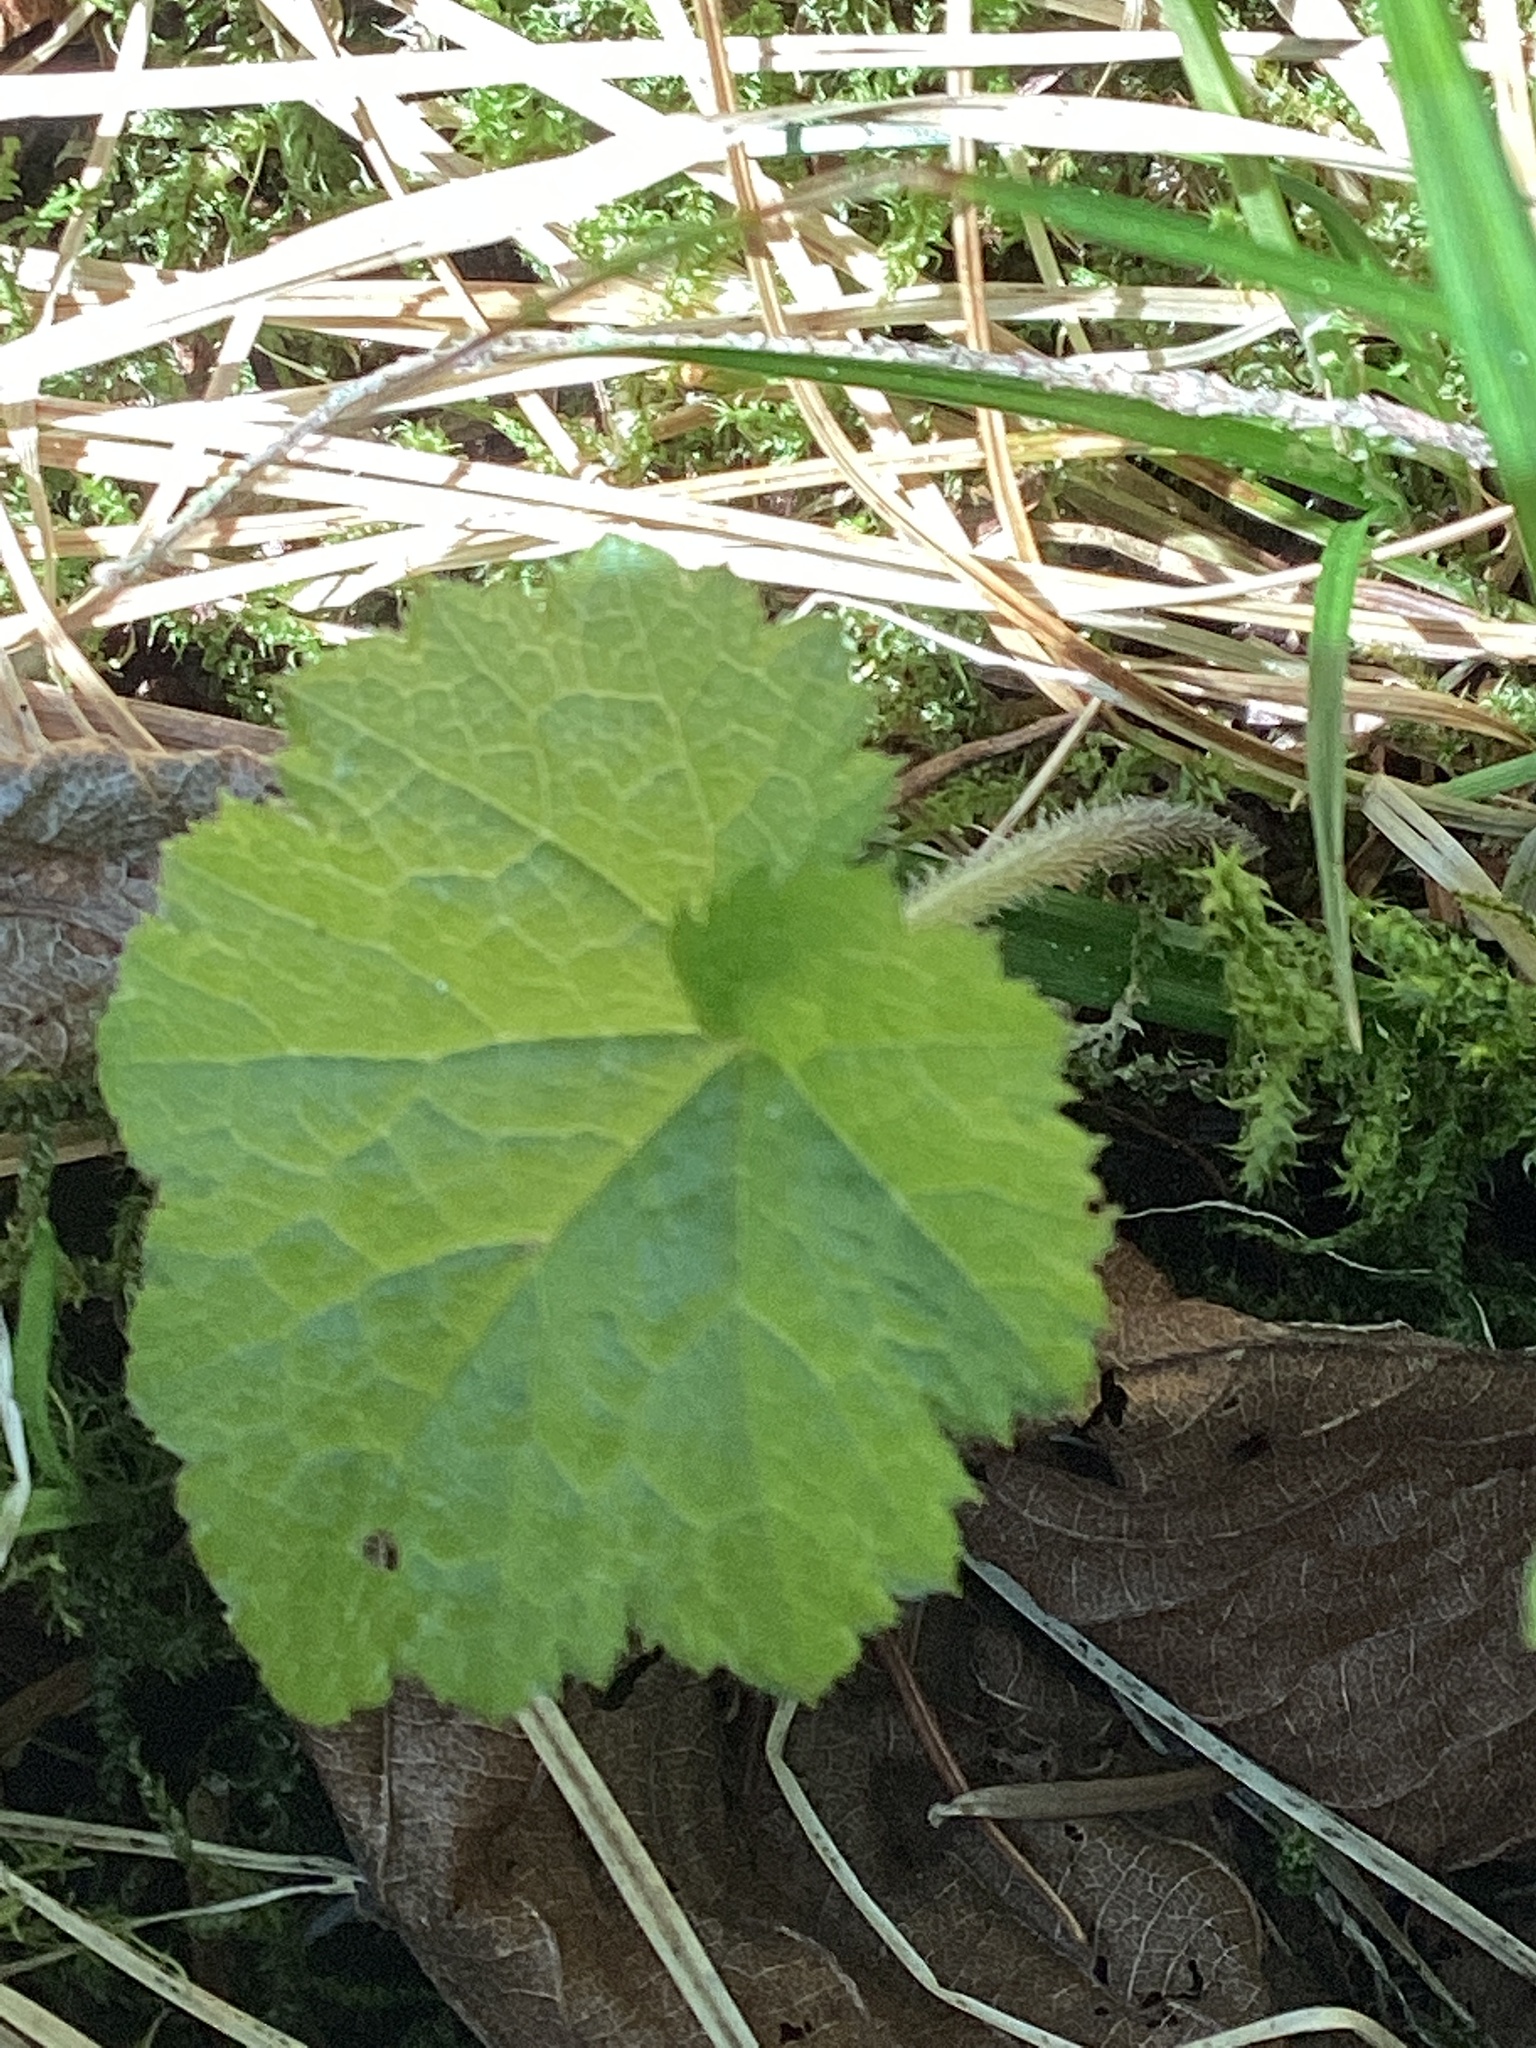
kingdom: Plantae
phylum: Tracheophyta
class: Magnoliopsida
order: Saxifragales
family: Saxifragaceae
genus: Tiarella
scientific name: Tiarella stolonifera
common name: Stoloniferous foamflower
